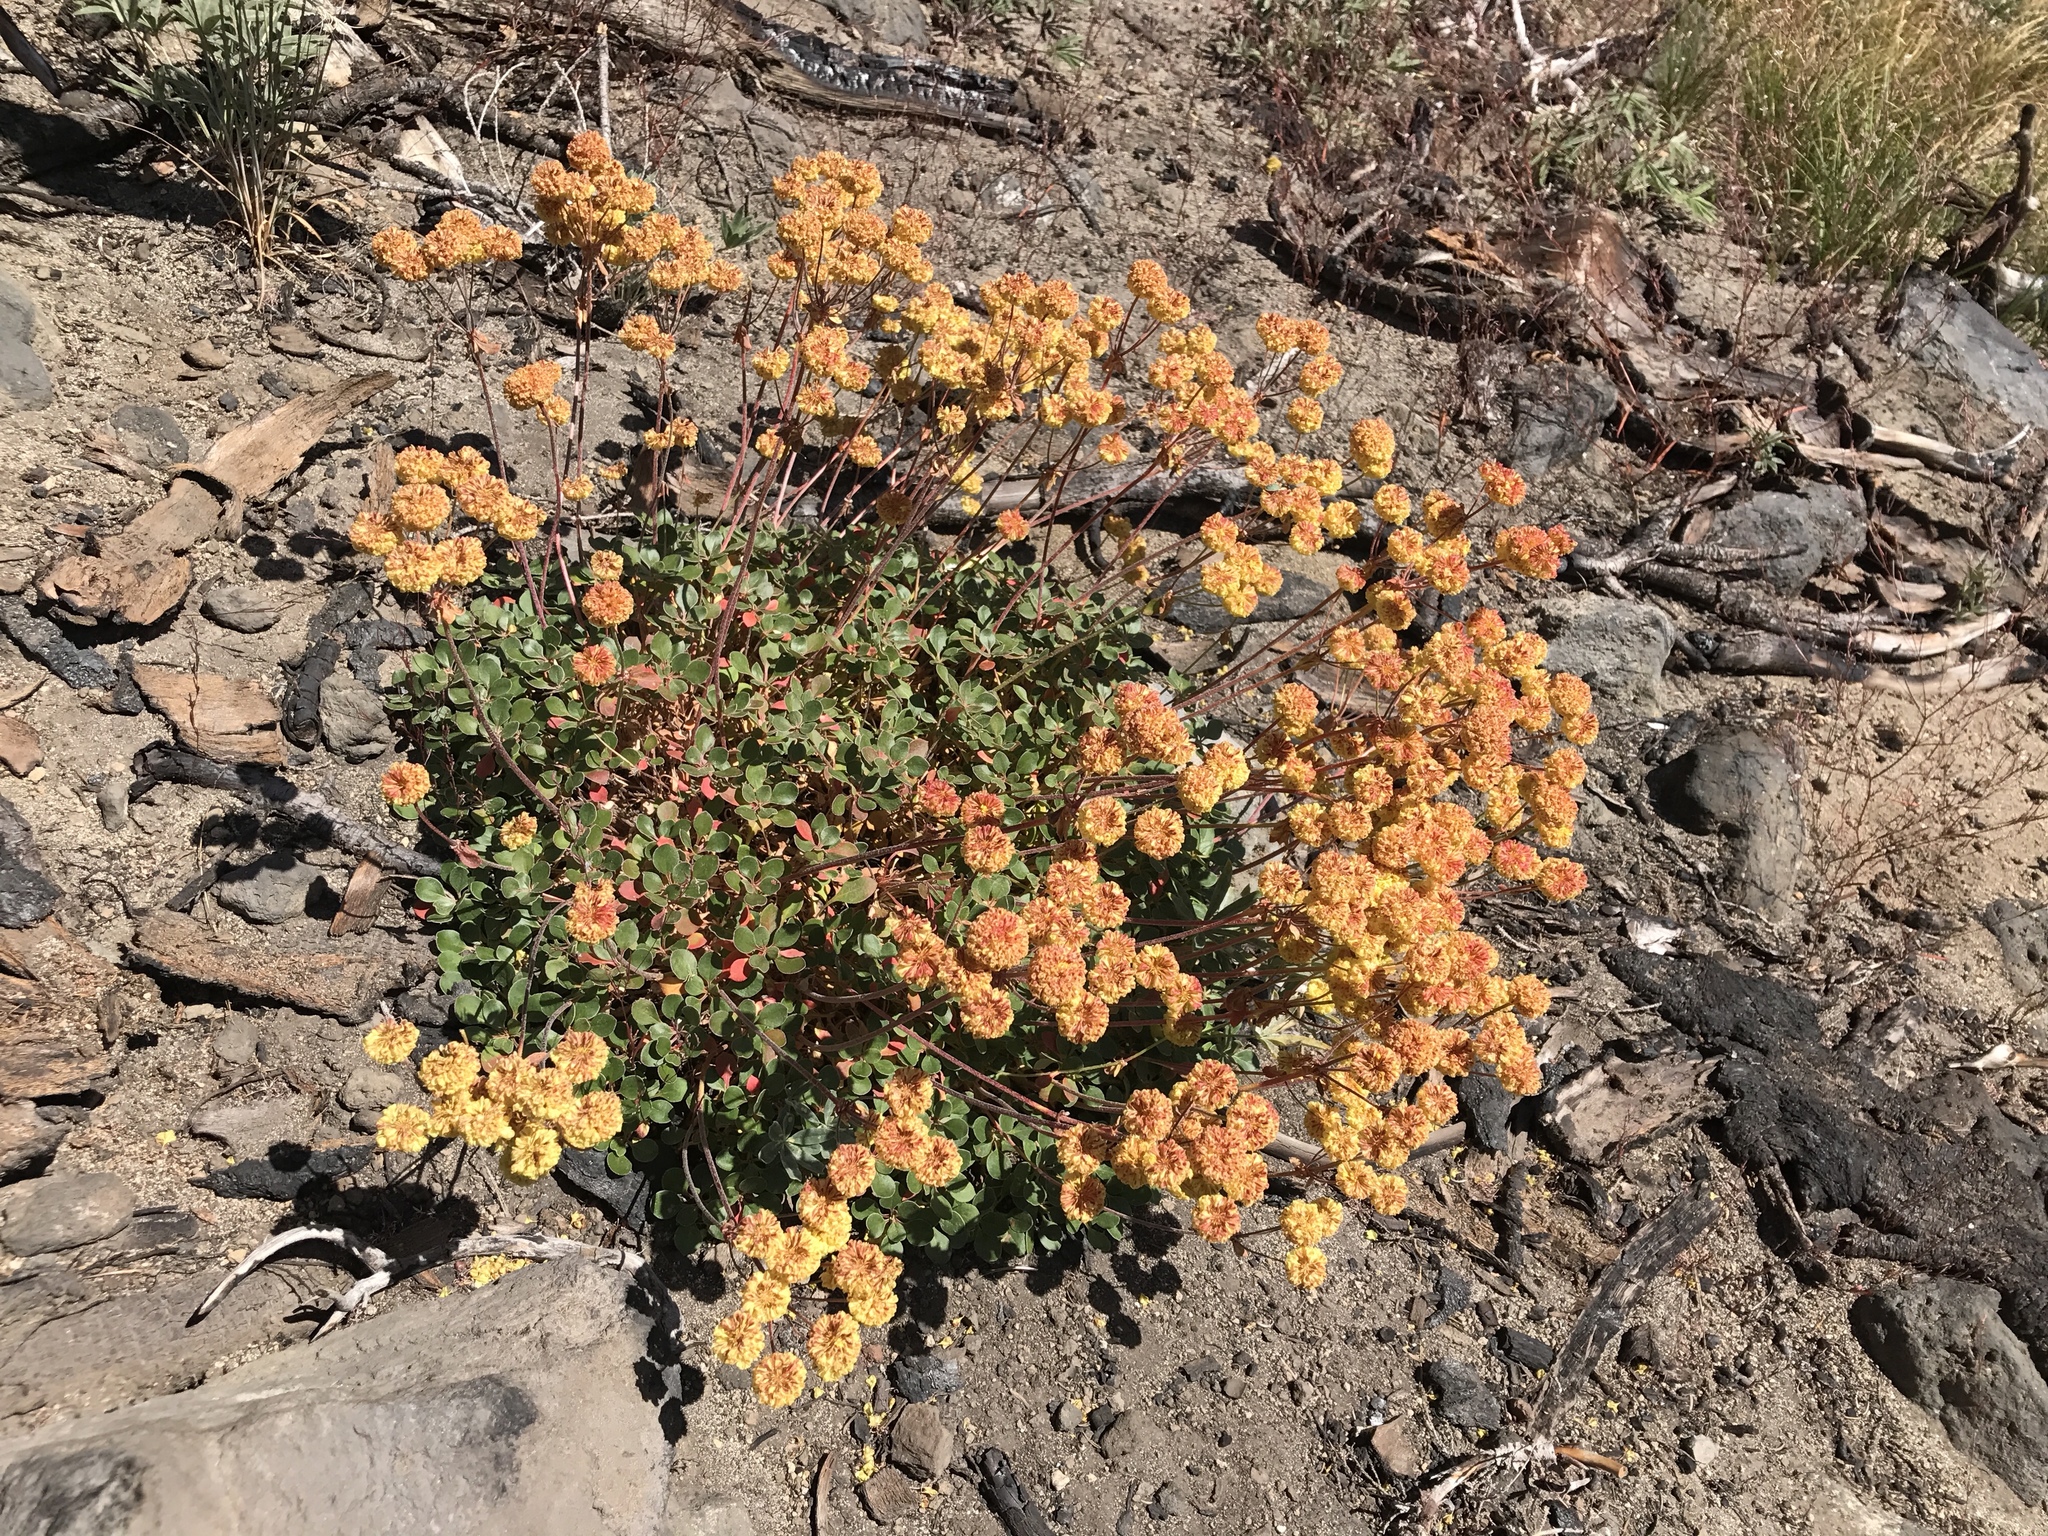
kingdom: Plantae
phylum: Tracheophyta
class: Magnoliopsida
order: Caryophyllales
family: Polygonaceae
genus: Eriogonum
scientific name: Eriogonum umbellatum
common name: Sulfur-buckwheat
